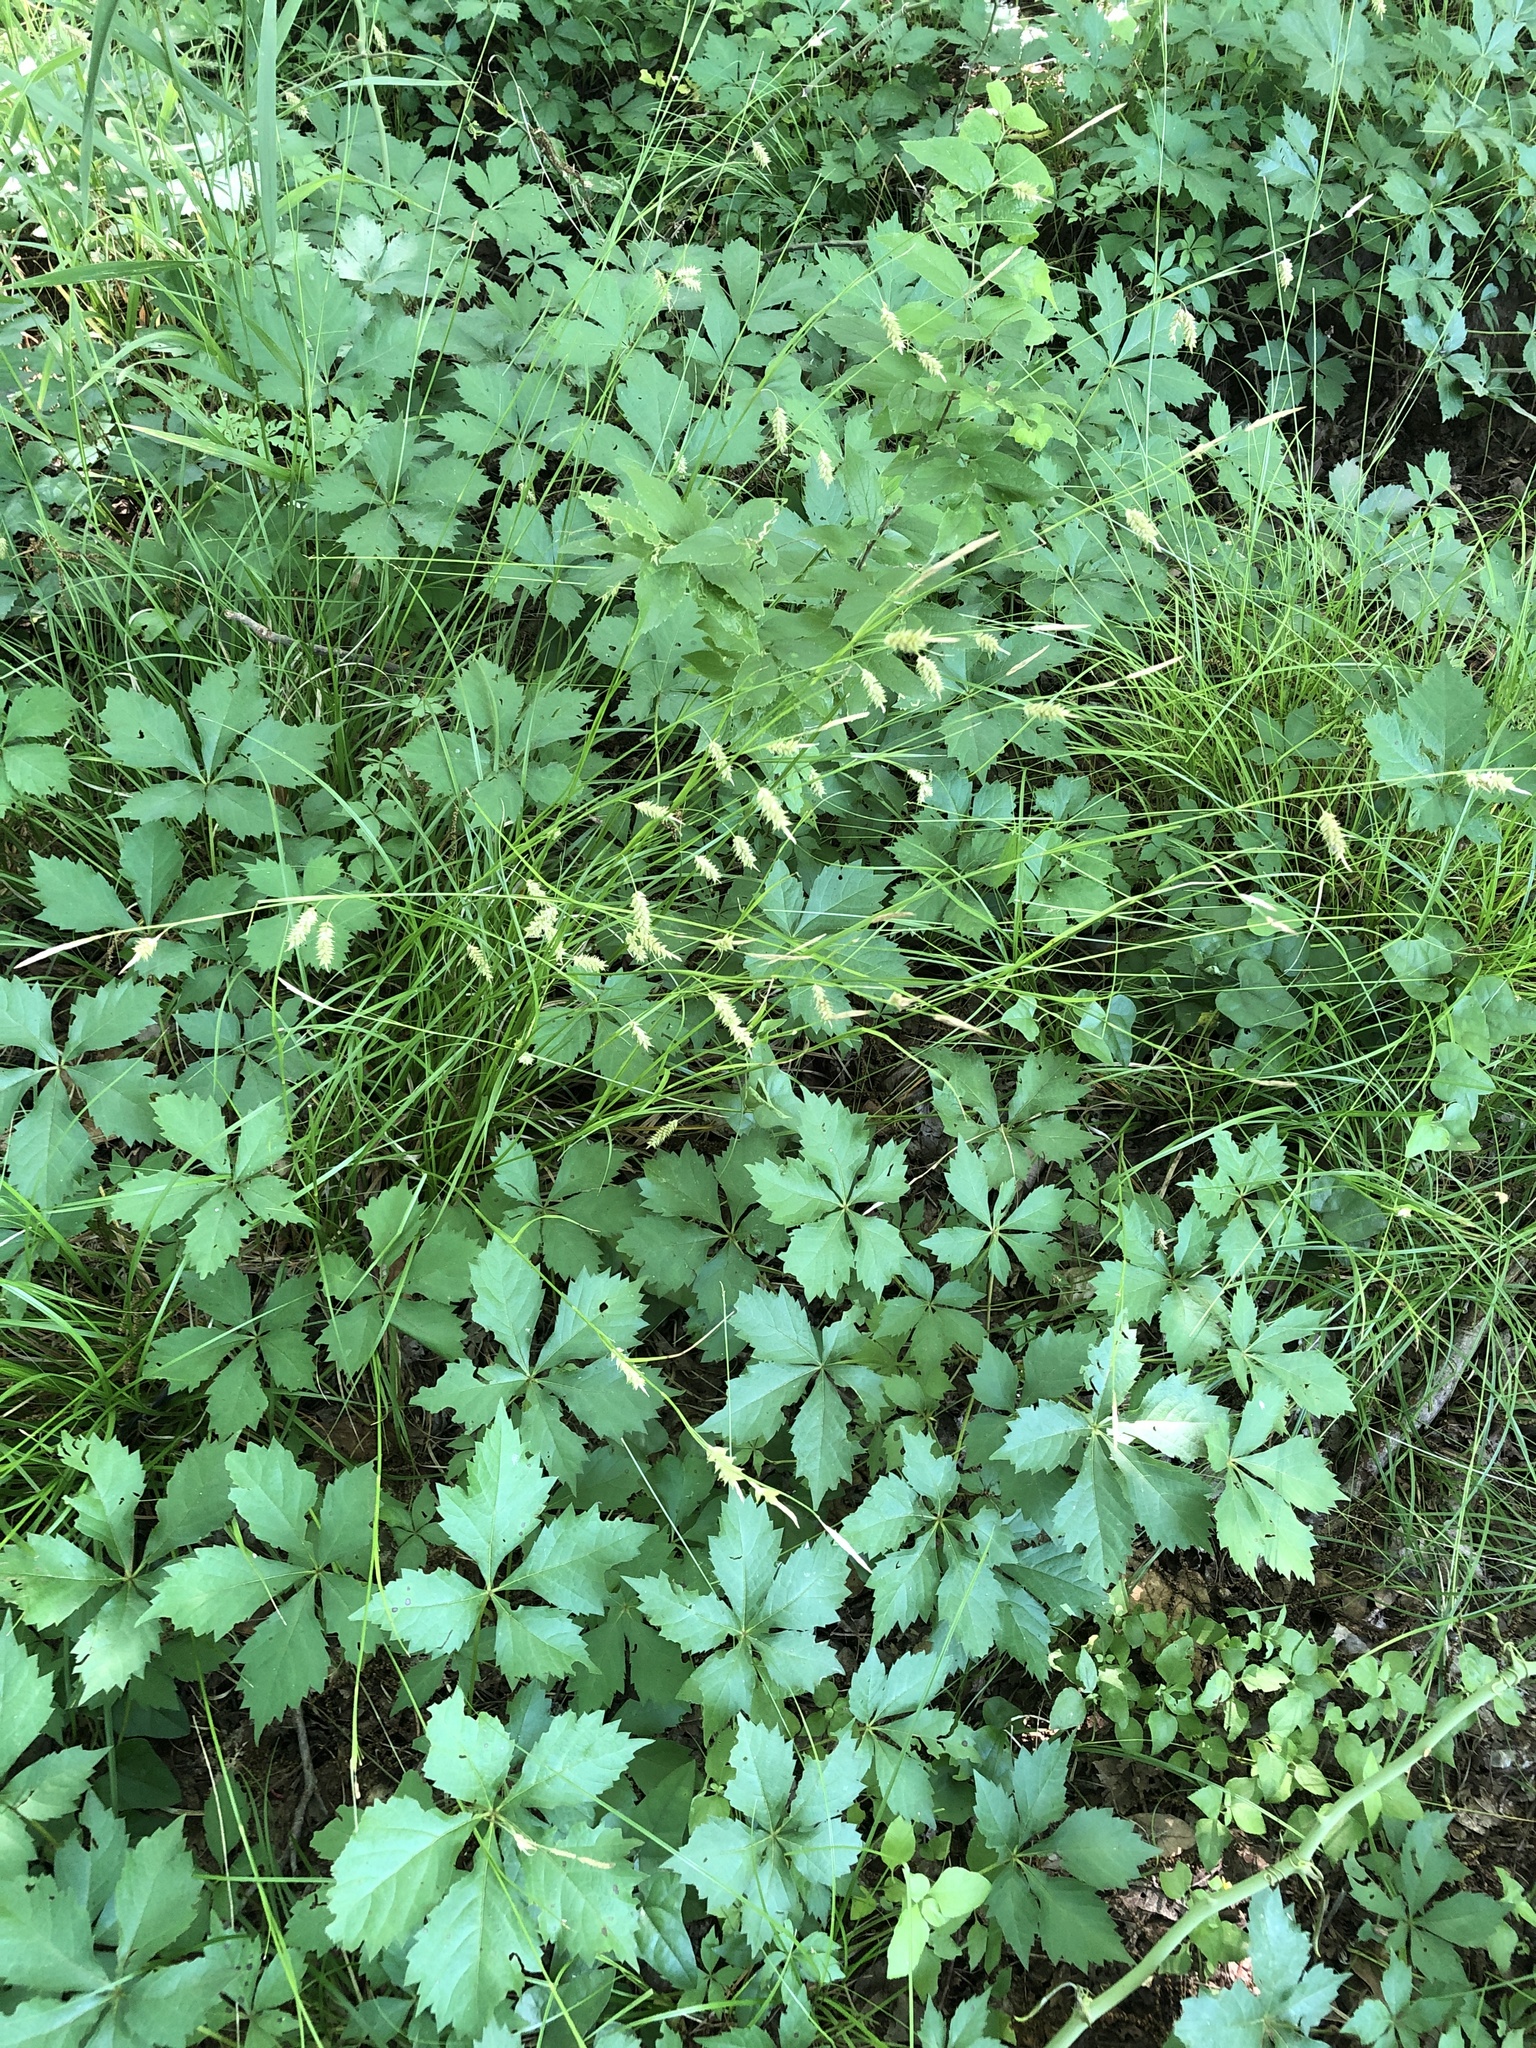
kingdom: Plantae
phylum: Tracheophyta
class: Liliopsida
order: Poales
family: Cyperaceae
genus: Carex
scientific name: Carex cherokeensis
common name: Cherokee sedge
